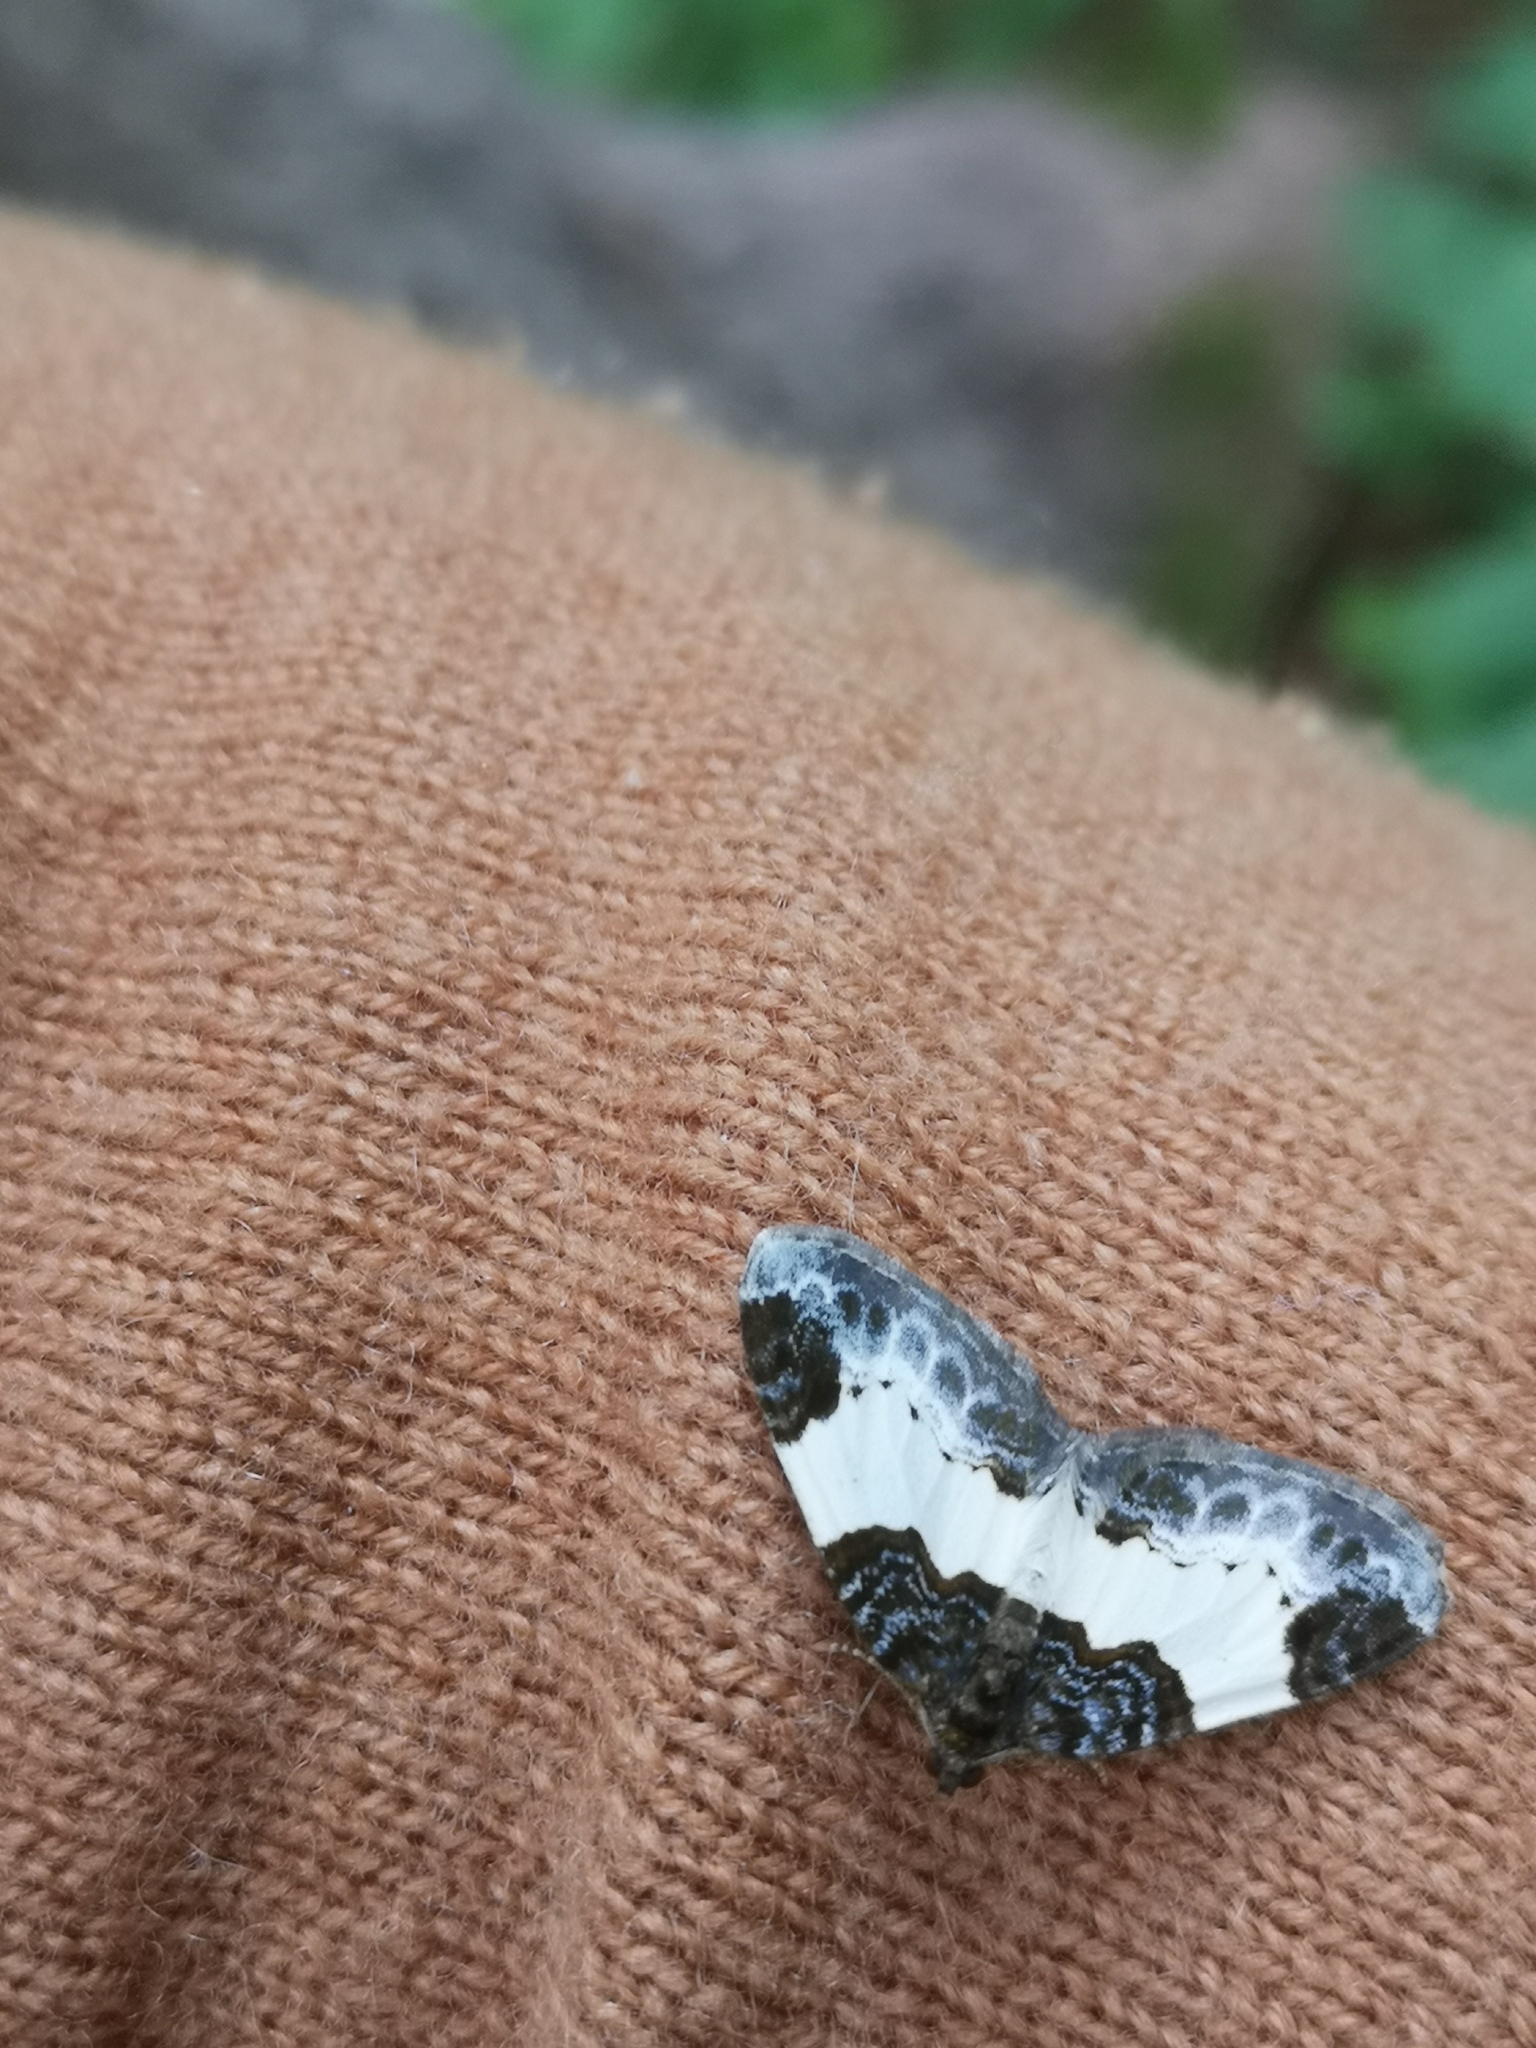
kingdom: Animalia
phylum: Arthropoda
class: Insecta
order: Lepidoptera
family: Geometridae
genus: Mesoleuca
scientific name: Mesoleuca albicillata
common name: Beautiful carpet
